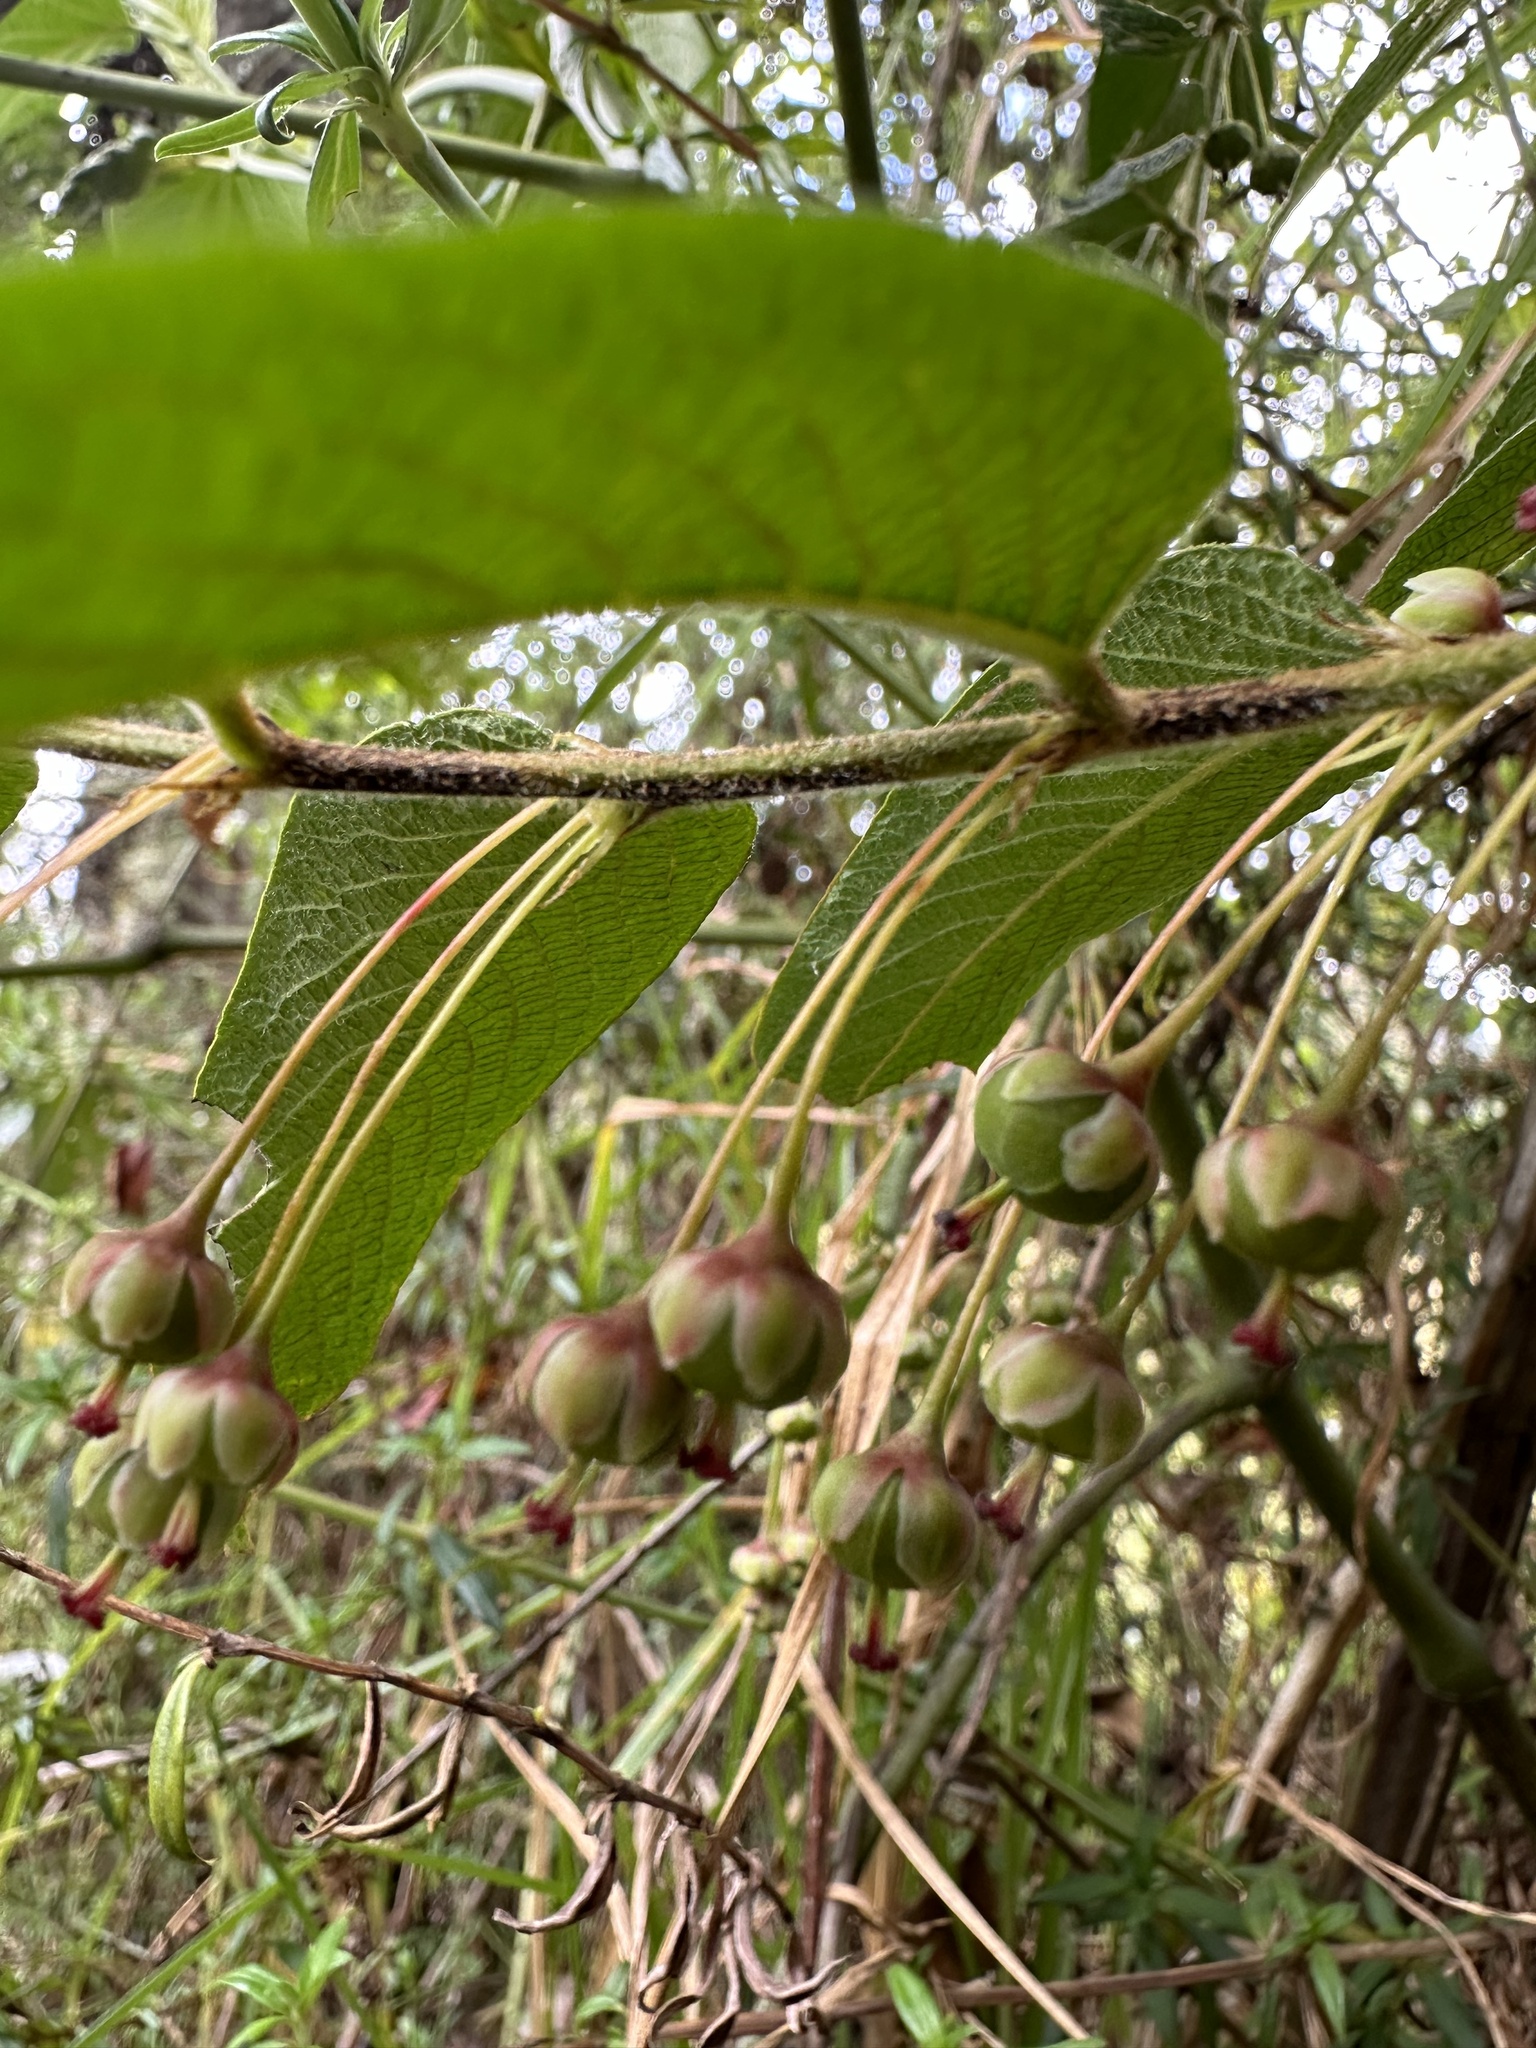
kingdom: Plantae
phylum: Tracheophyta
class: Magnoliopsida
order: Malpighiales
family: Phyllanthaceae
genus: Phyllanthus
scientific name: Phyllanthus salviifolius
